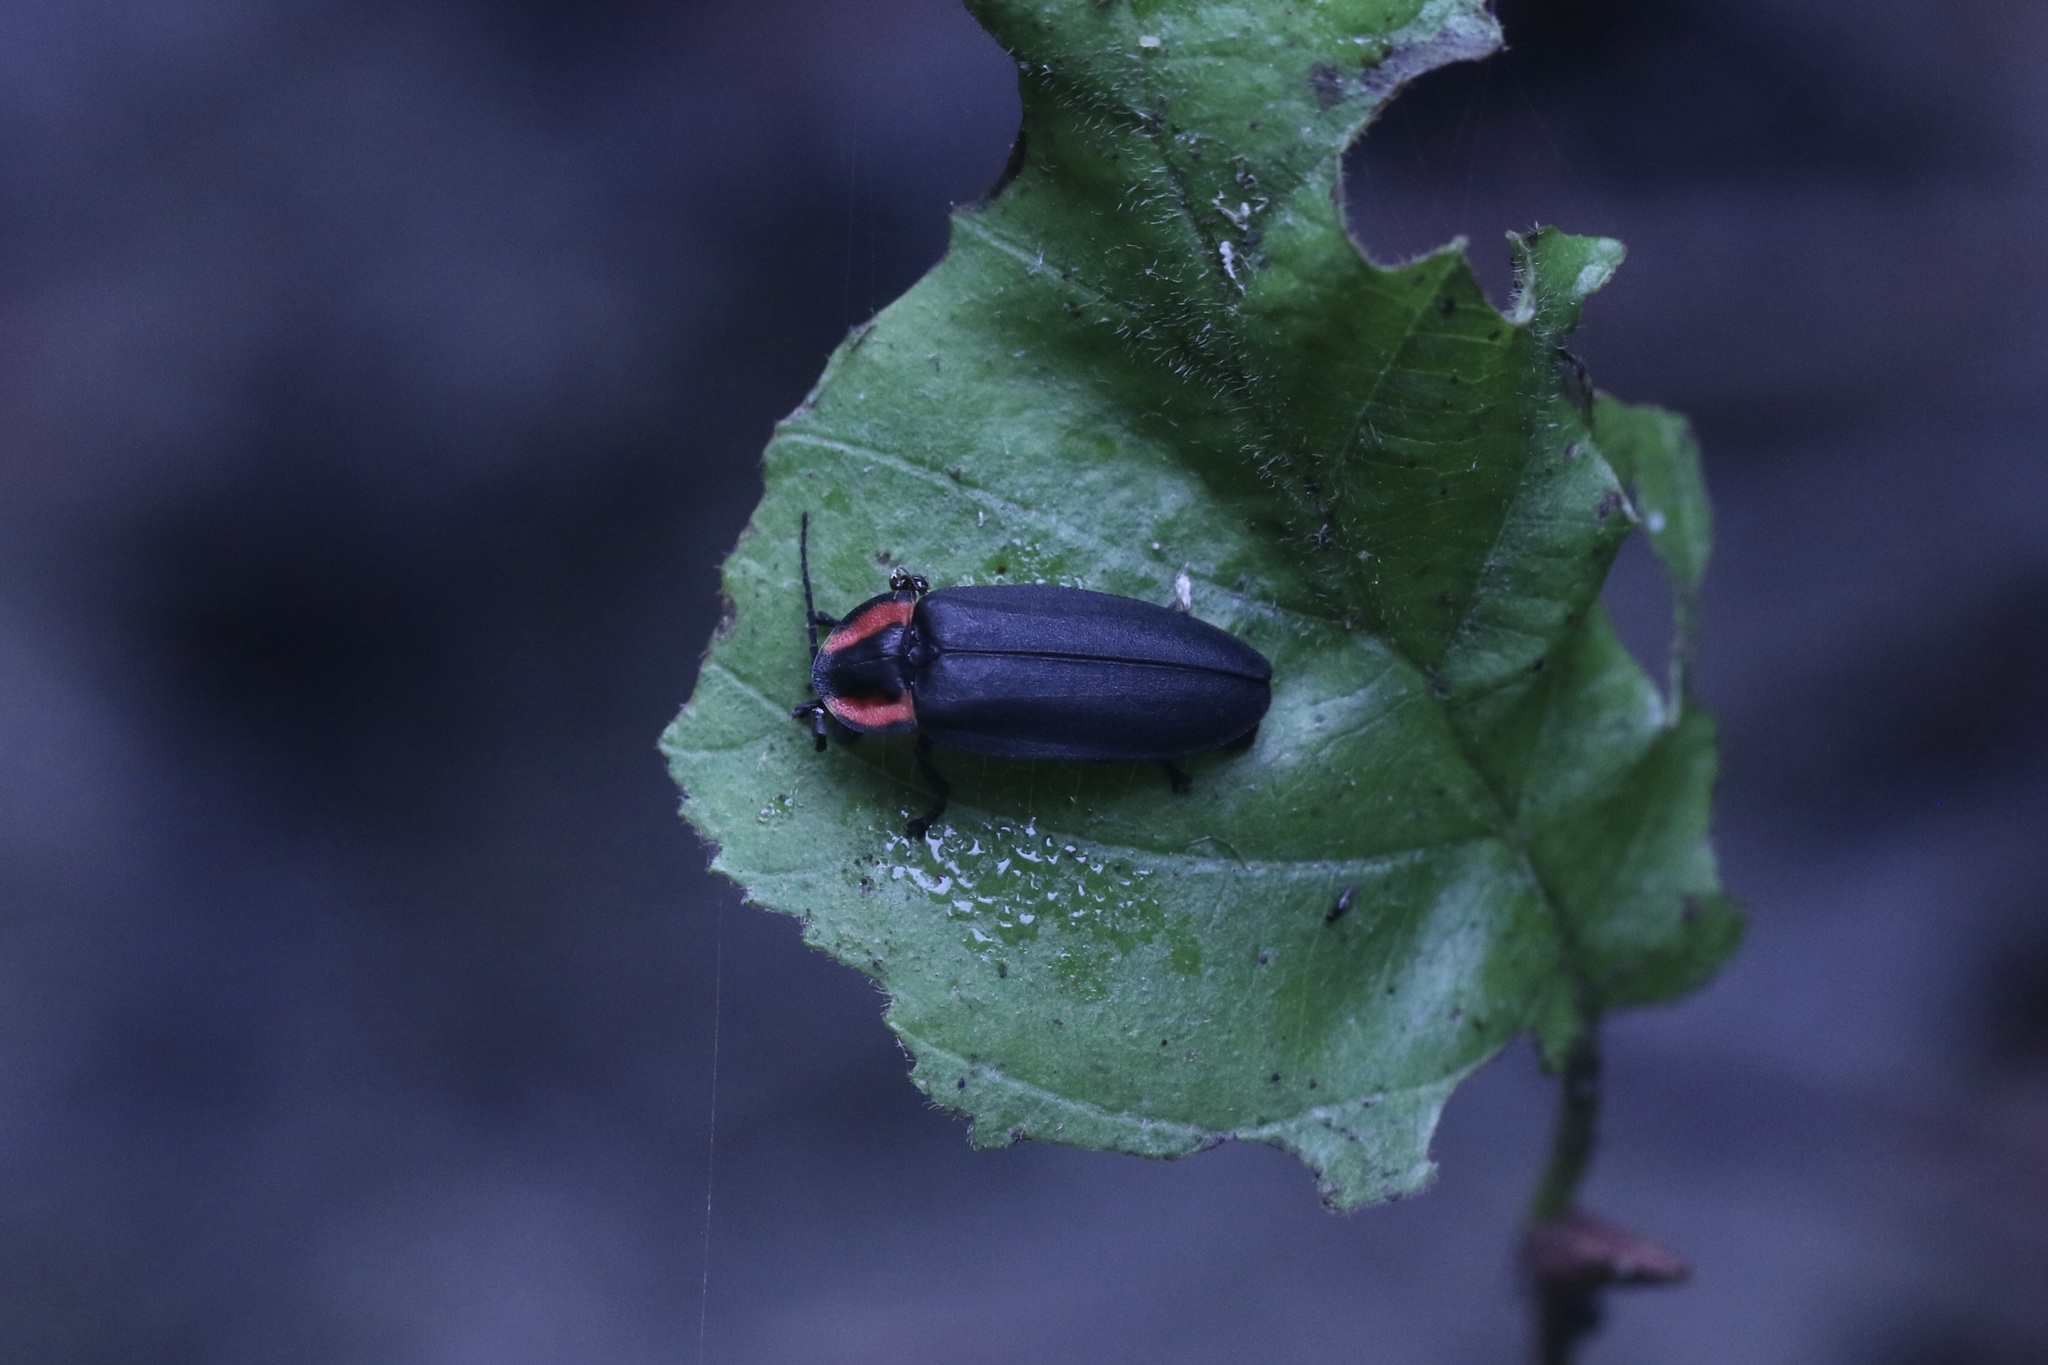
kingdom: Animalia
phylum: Arthropoda
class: Insecta
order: Coleoptera
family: Lampyridae
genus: Photinus
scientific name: Photinus californica
